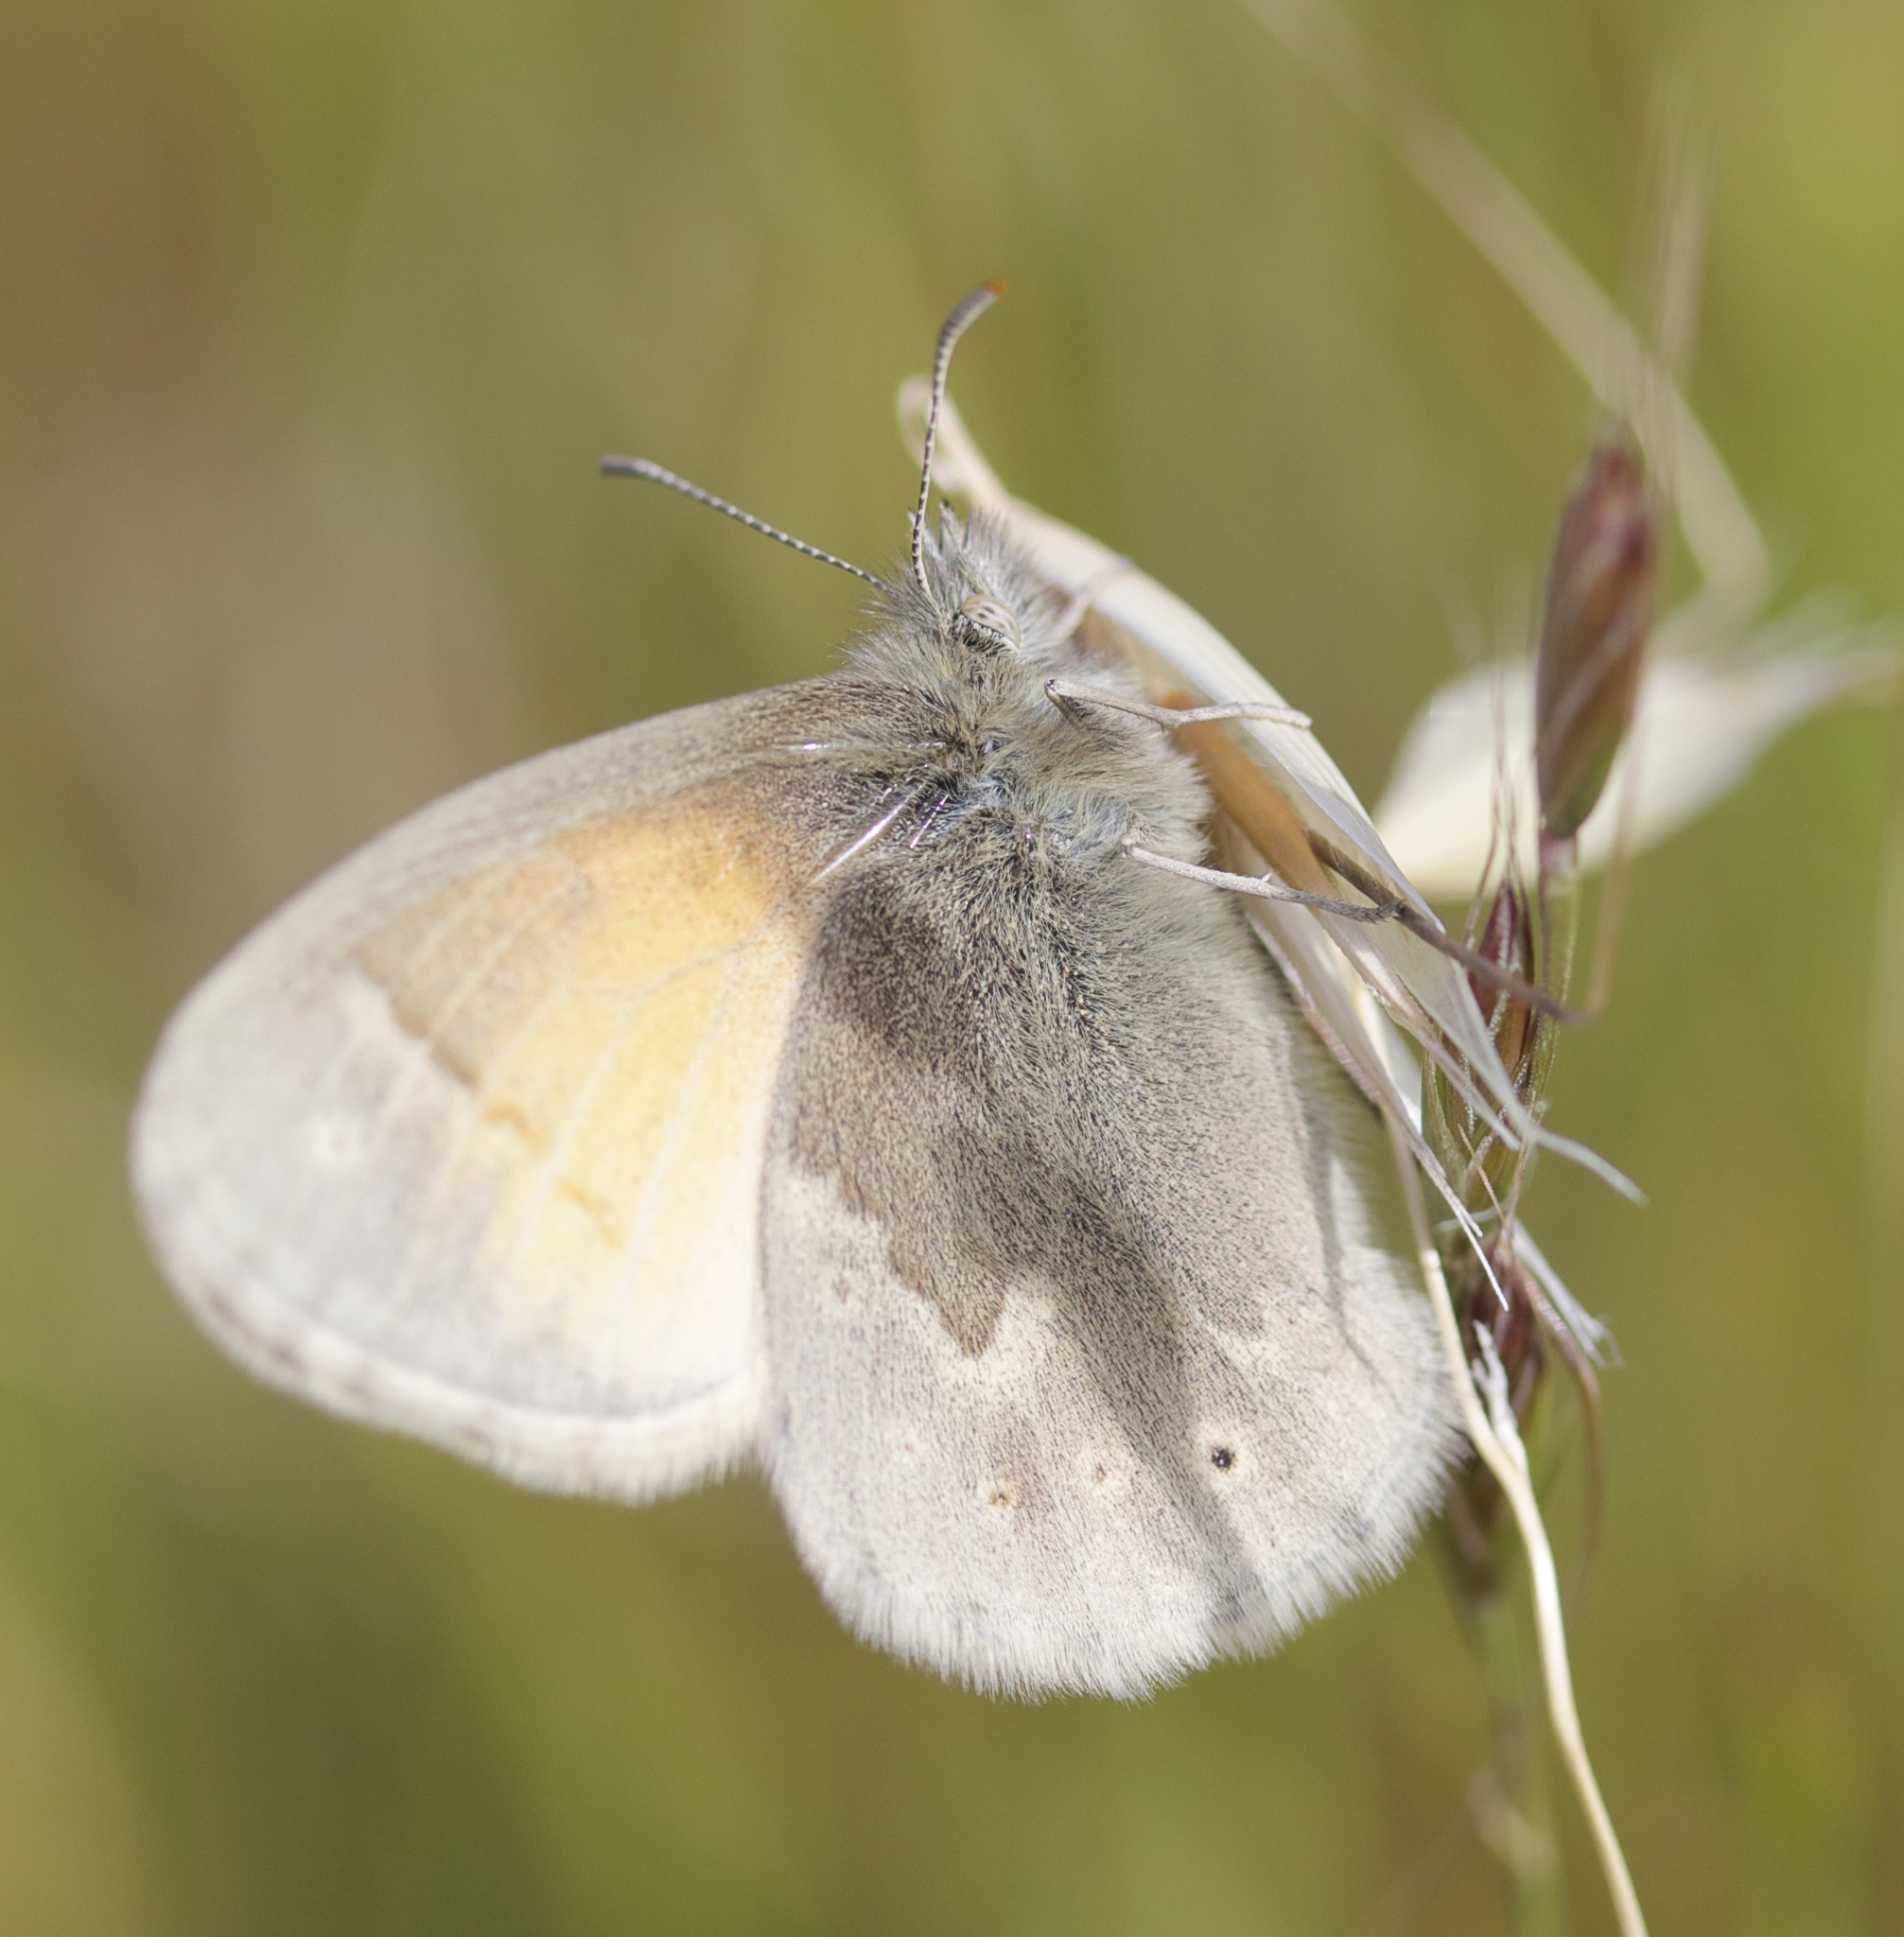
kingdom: Animalia
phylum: Arthropoda
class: Insecta
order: Lepidoptera
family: Nymphalidae
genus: Coenonympha
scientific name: Coenonympha california
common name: Common ringlet
